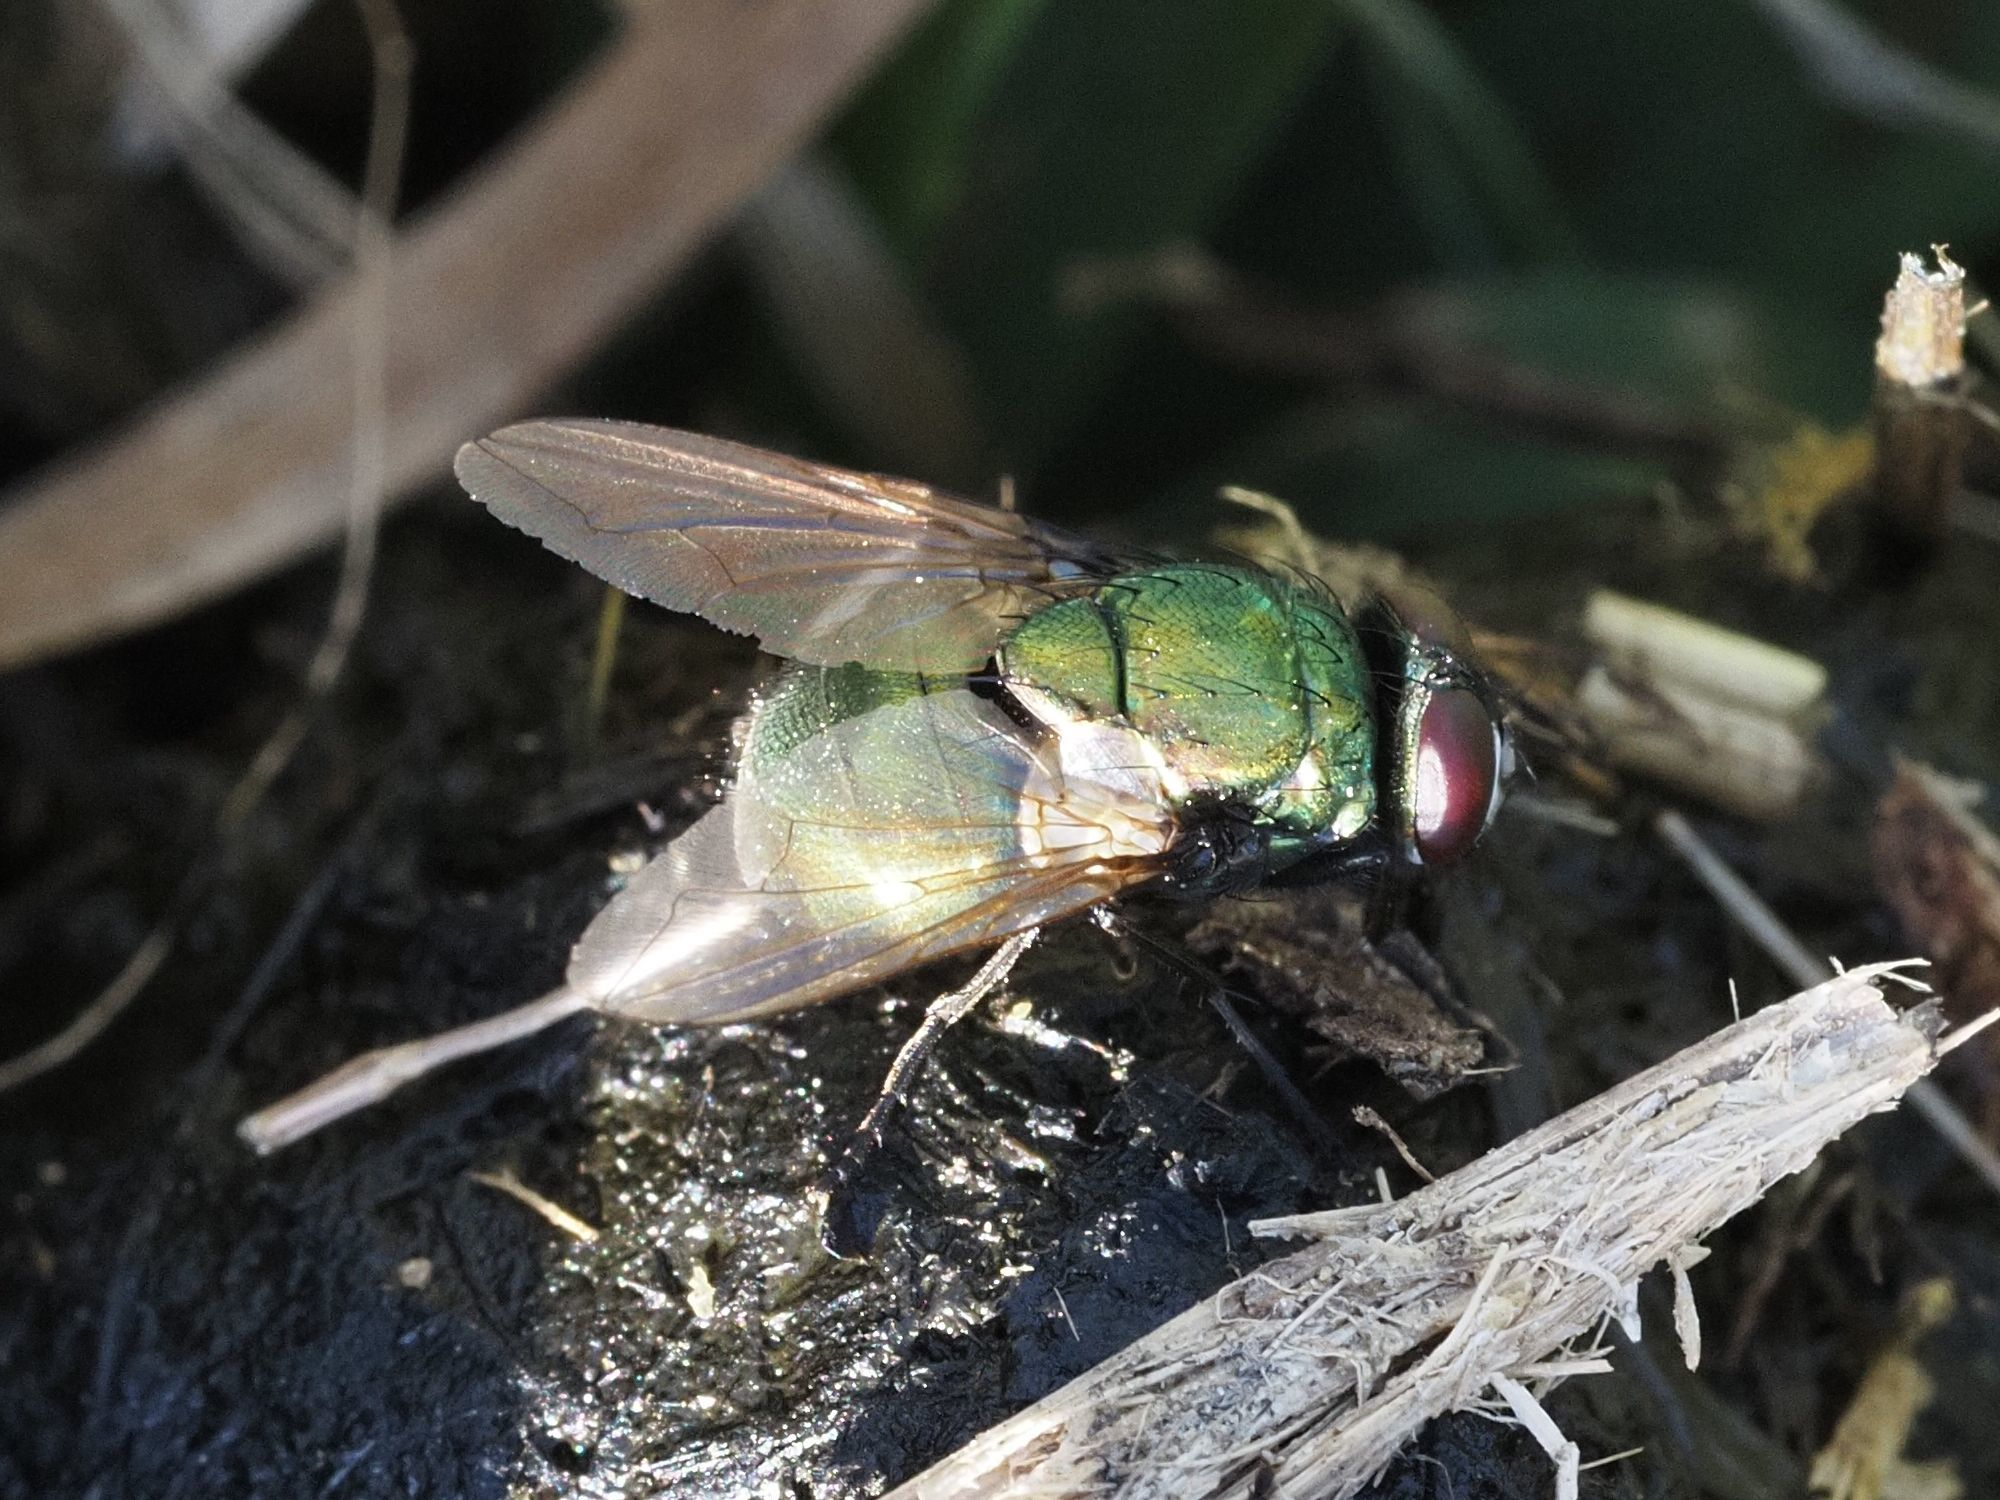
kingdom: Animalia
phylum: Arthropoda
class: Insecta
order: Diptera
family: Muscidae
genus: Neomyia
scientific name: Neomyia cornicina
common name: House fly
